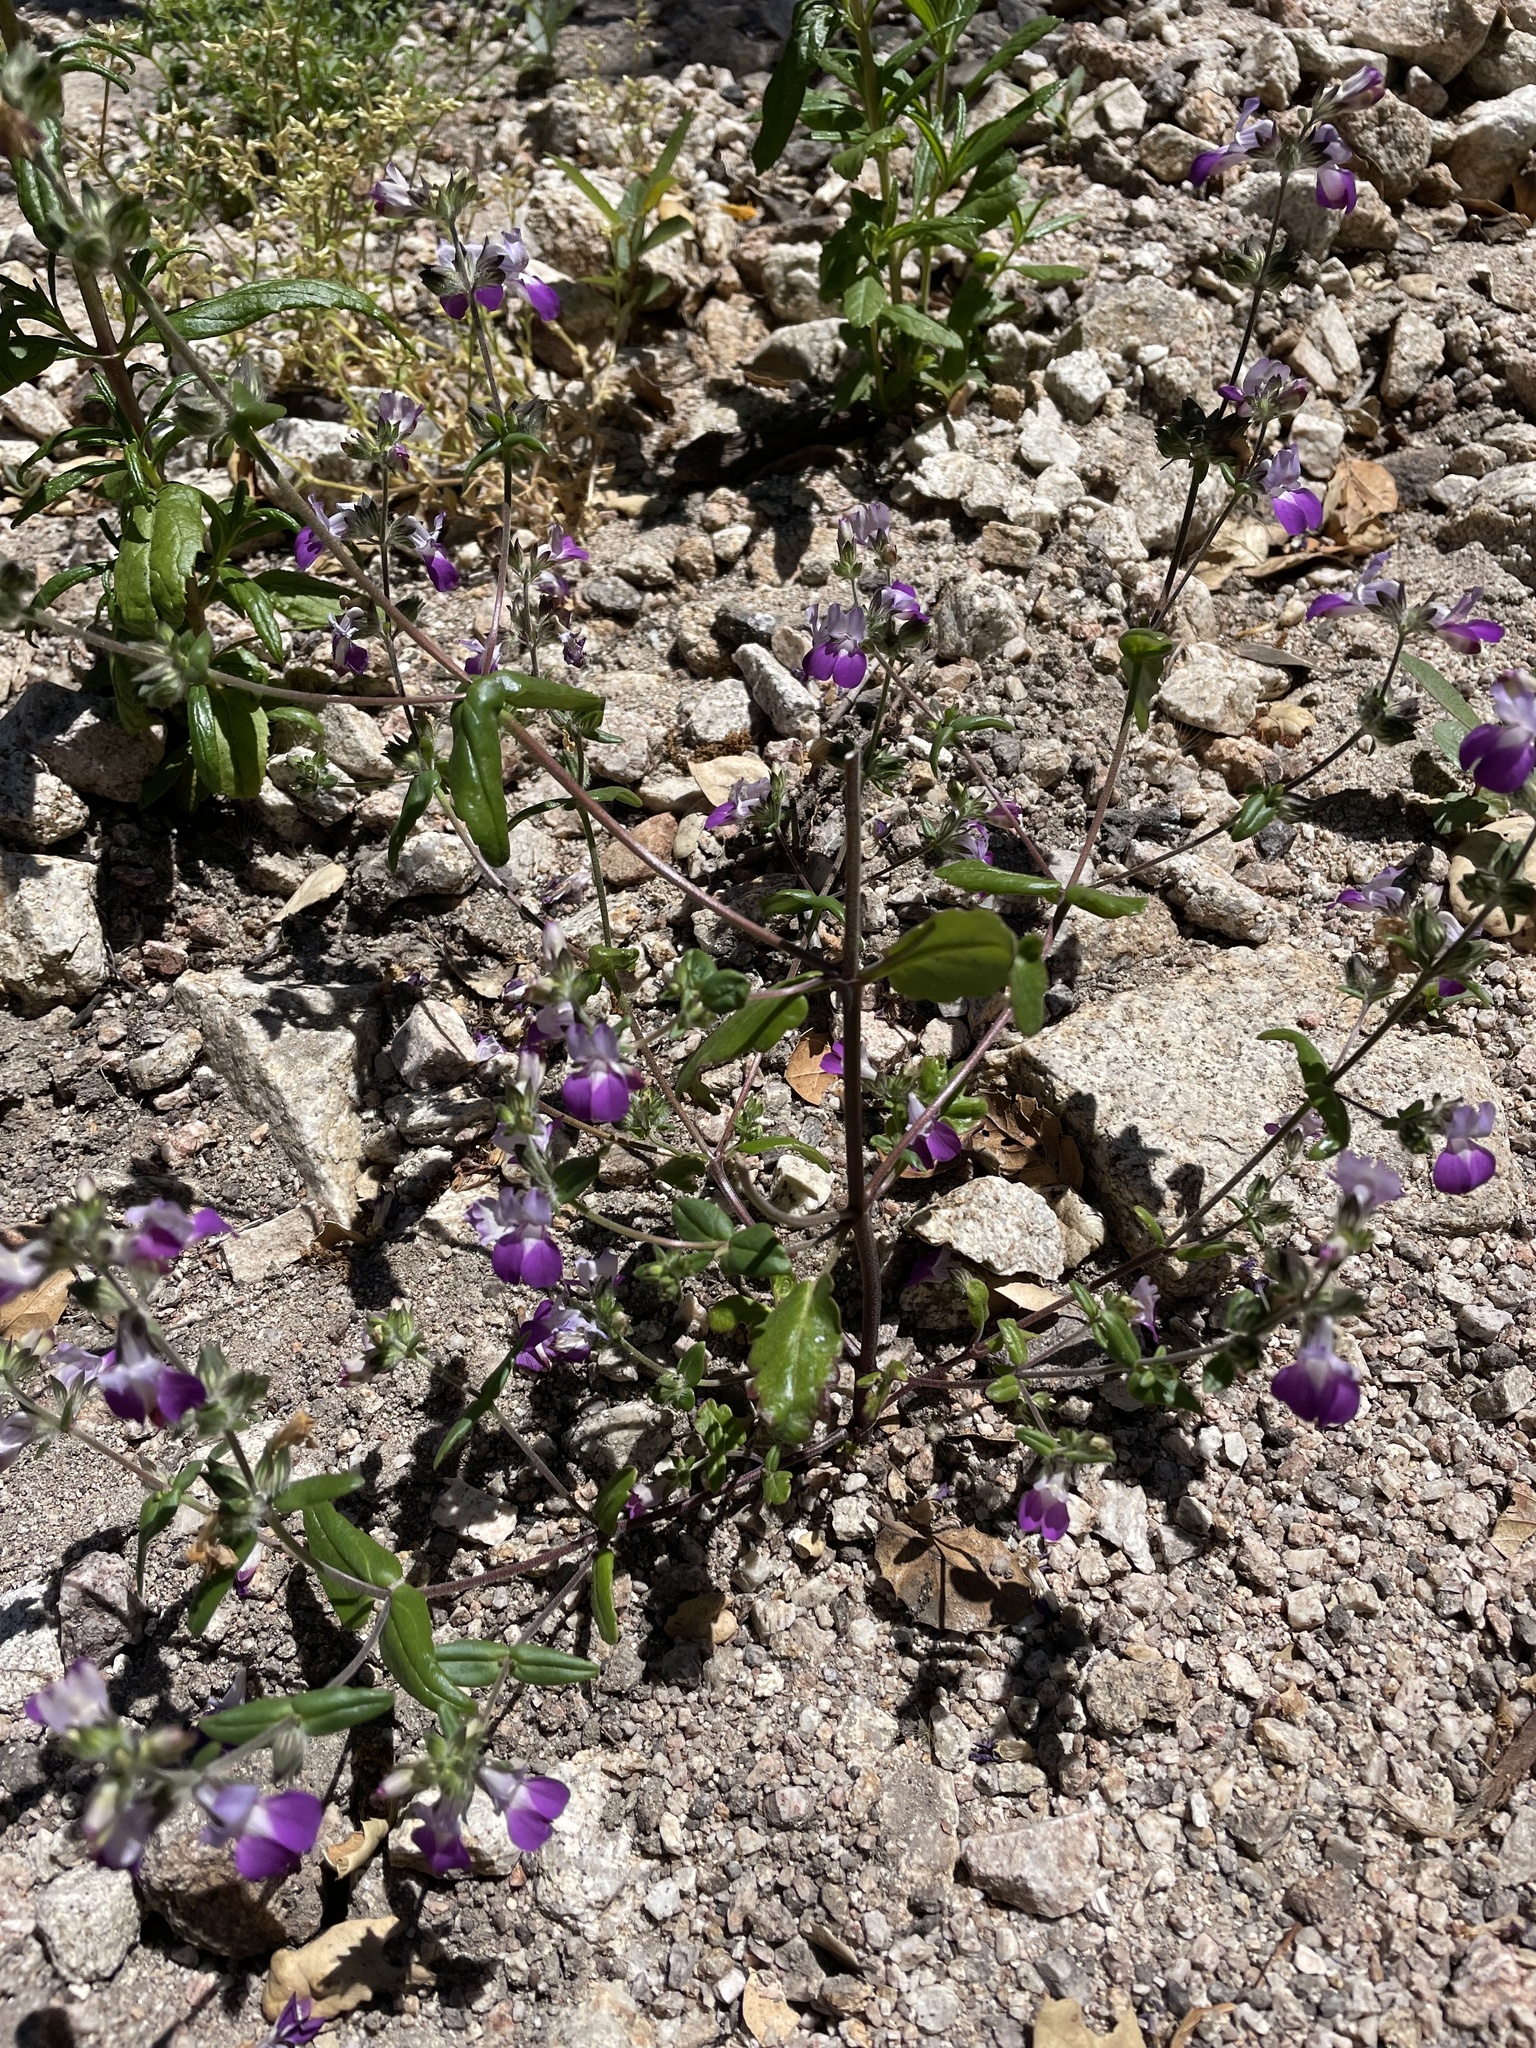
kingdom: Plantae
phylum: Tracheophyta
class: Magnoliopsida
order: Lamiales
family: Plantaginaceae
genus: Collinsia
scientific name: Collinsia heterophylla
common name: Chinese-houses
